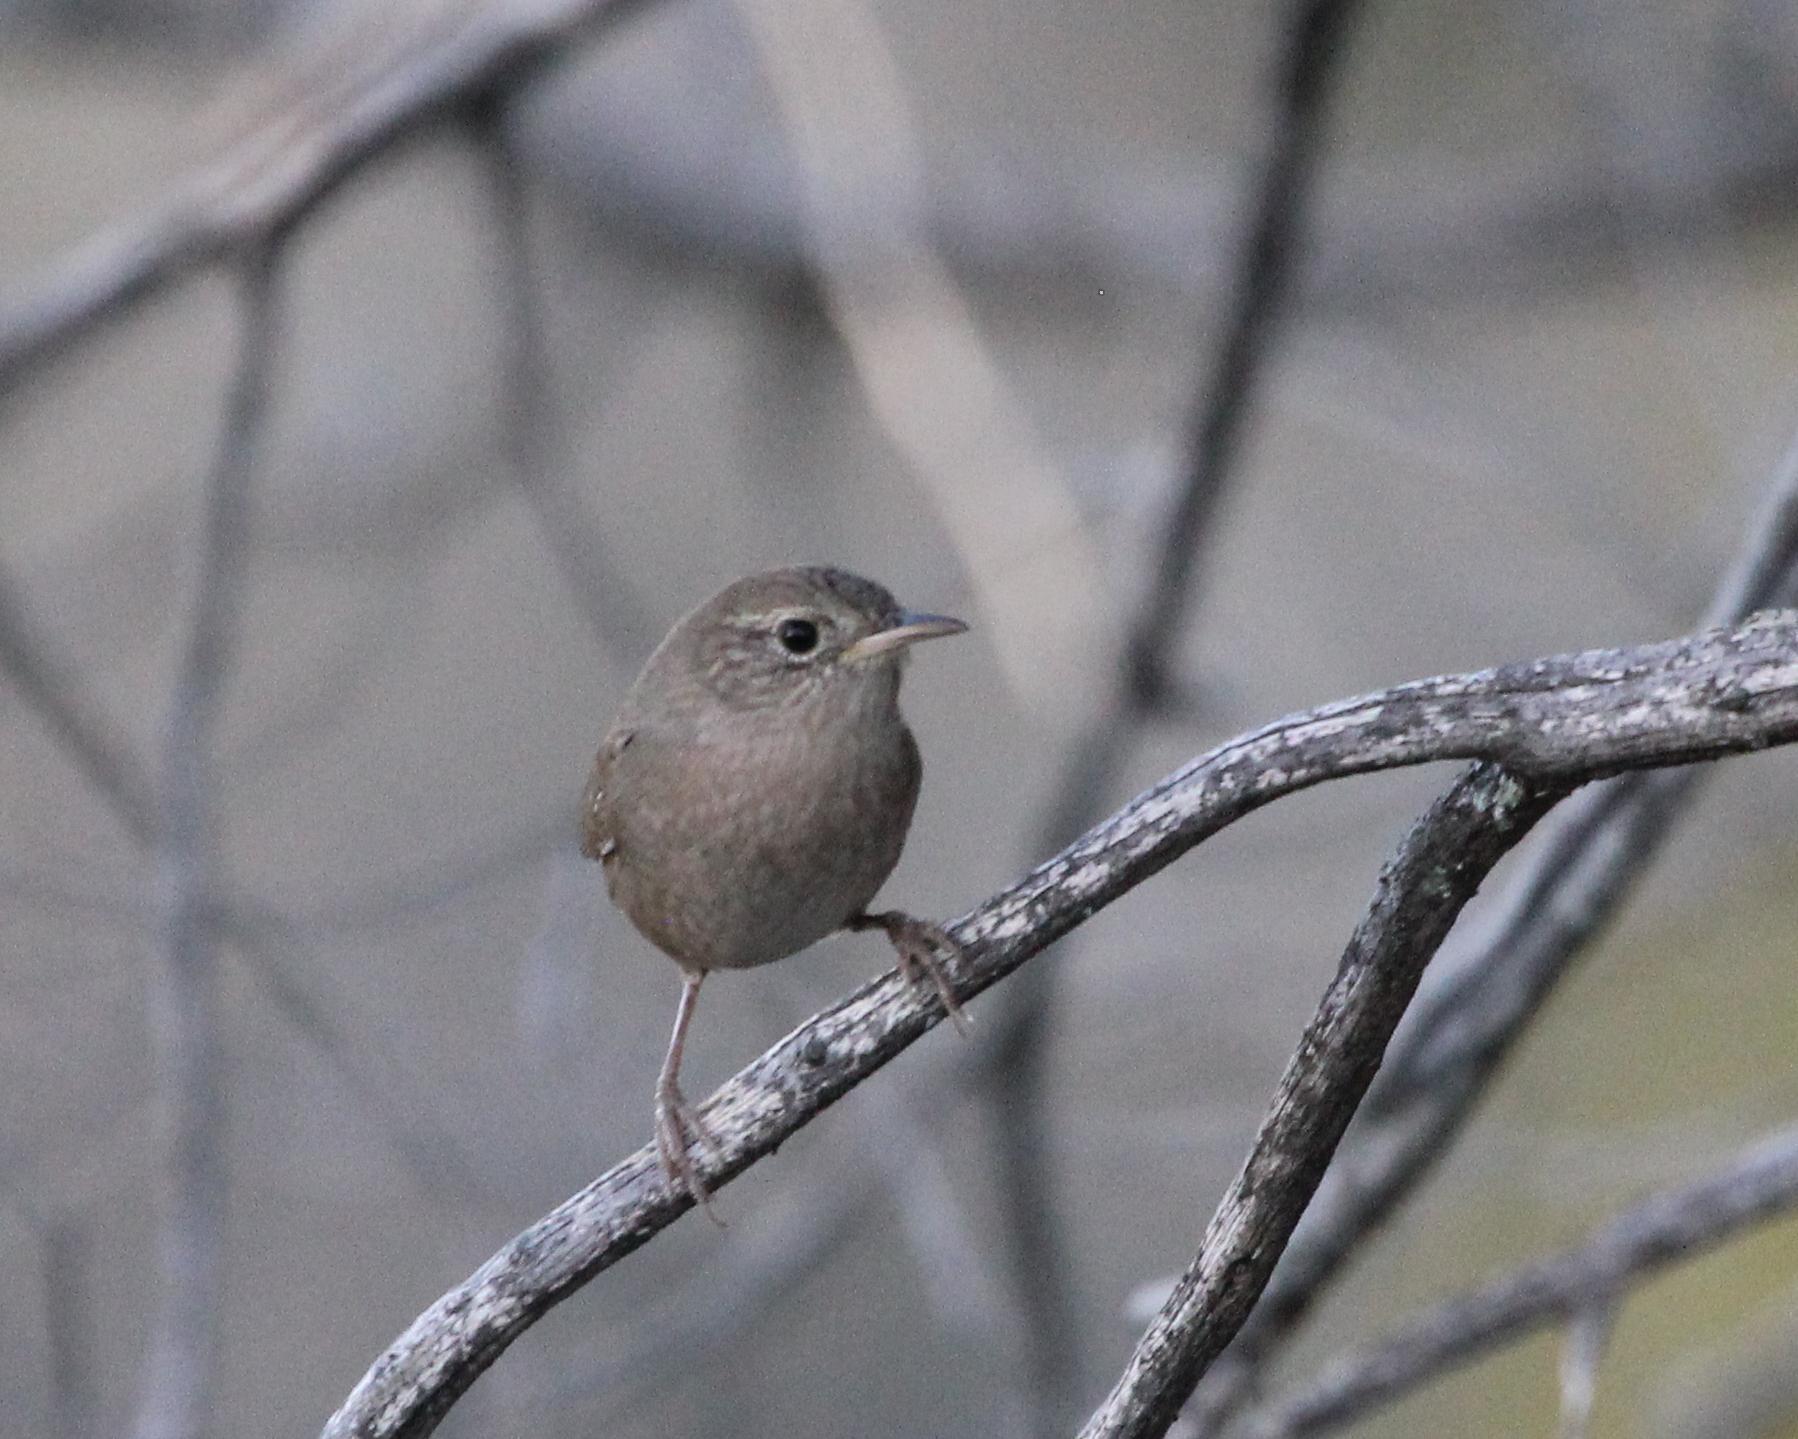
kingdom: Animalia
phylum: Chordata
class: Aves
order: Passeriformes
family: Troglodytidae
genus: Troglodytes
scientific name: Troglodytes aedon
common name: House wren
